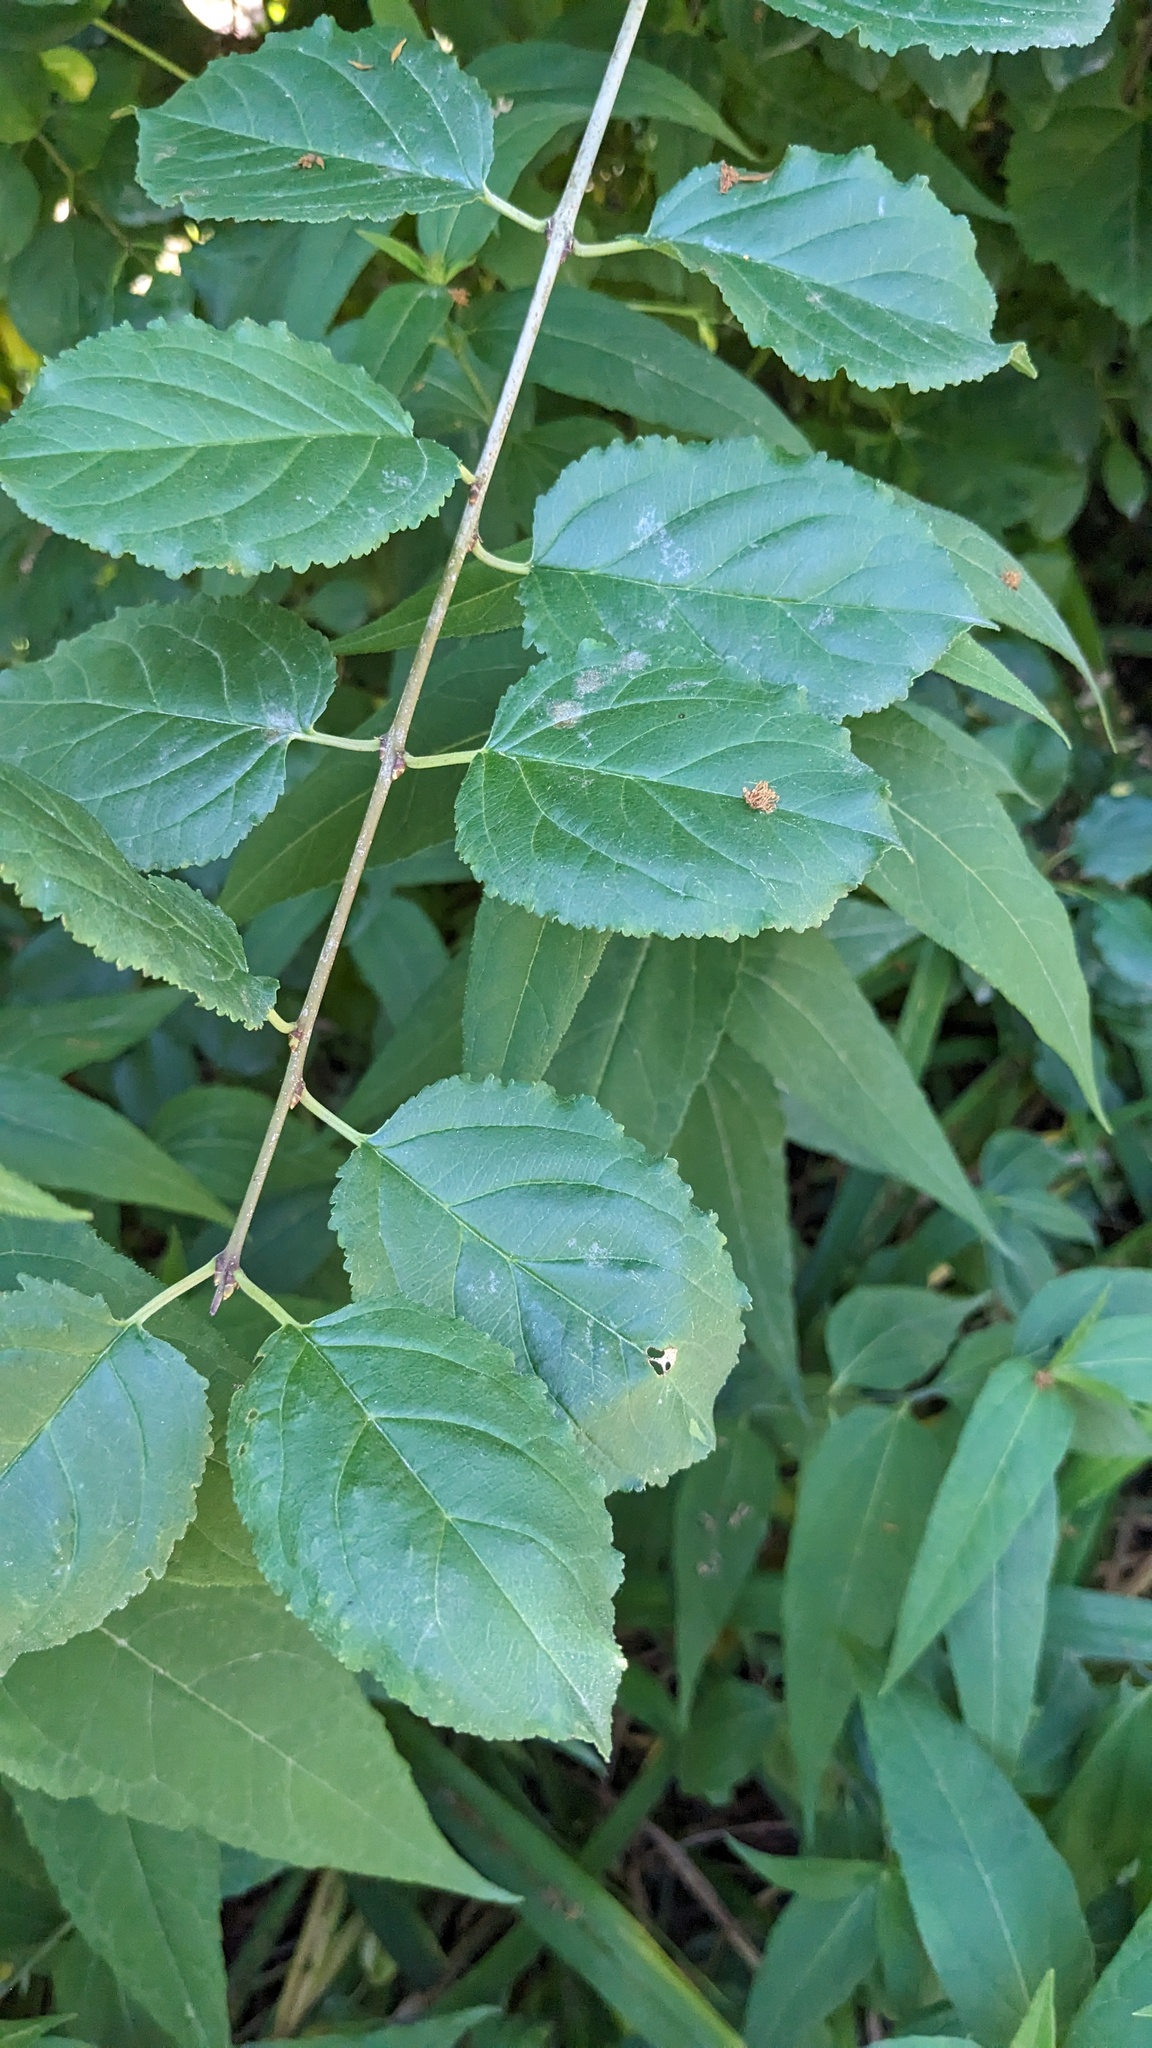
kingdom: Plantae
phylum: Tracheophyta
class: Magnoliopsida
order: Rosales
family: Rhamnaceae
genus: Rhamnus
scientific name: Rhamnus cathartica
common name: Common buckthorn
